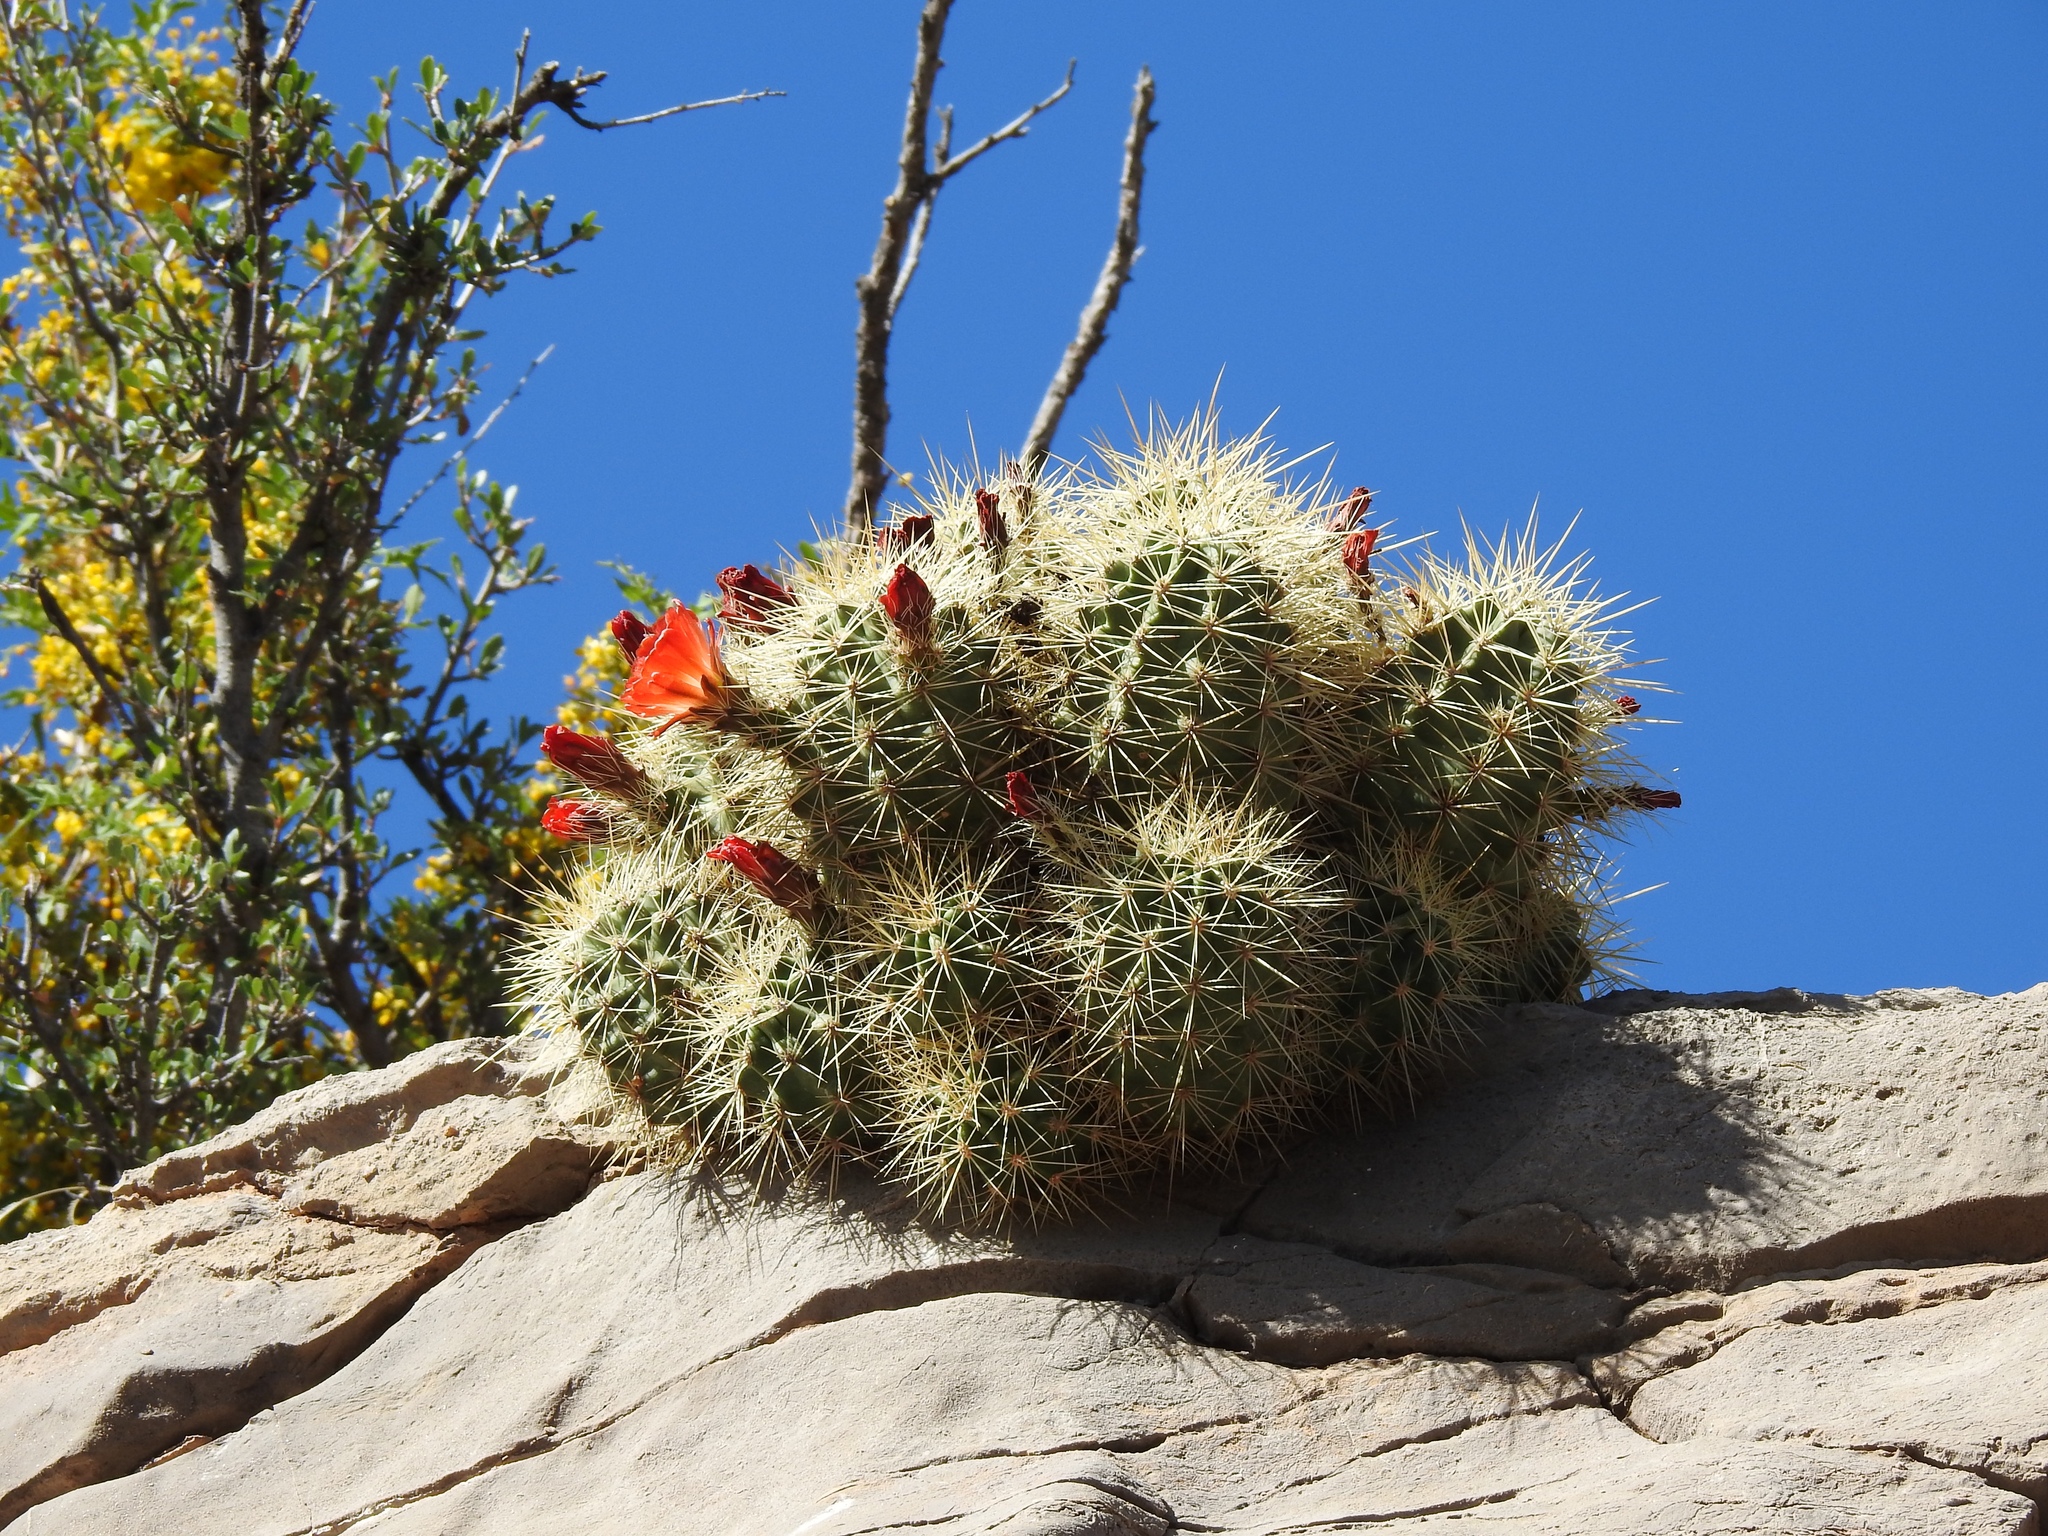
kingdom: Plantae
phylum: Tracheophyta
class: Magnoliopsida
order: Caryophyllales
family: Cactaceae
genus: Echinocereus
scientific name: Echinocereus coccineus
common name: Scarlet hedgehog cactus
